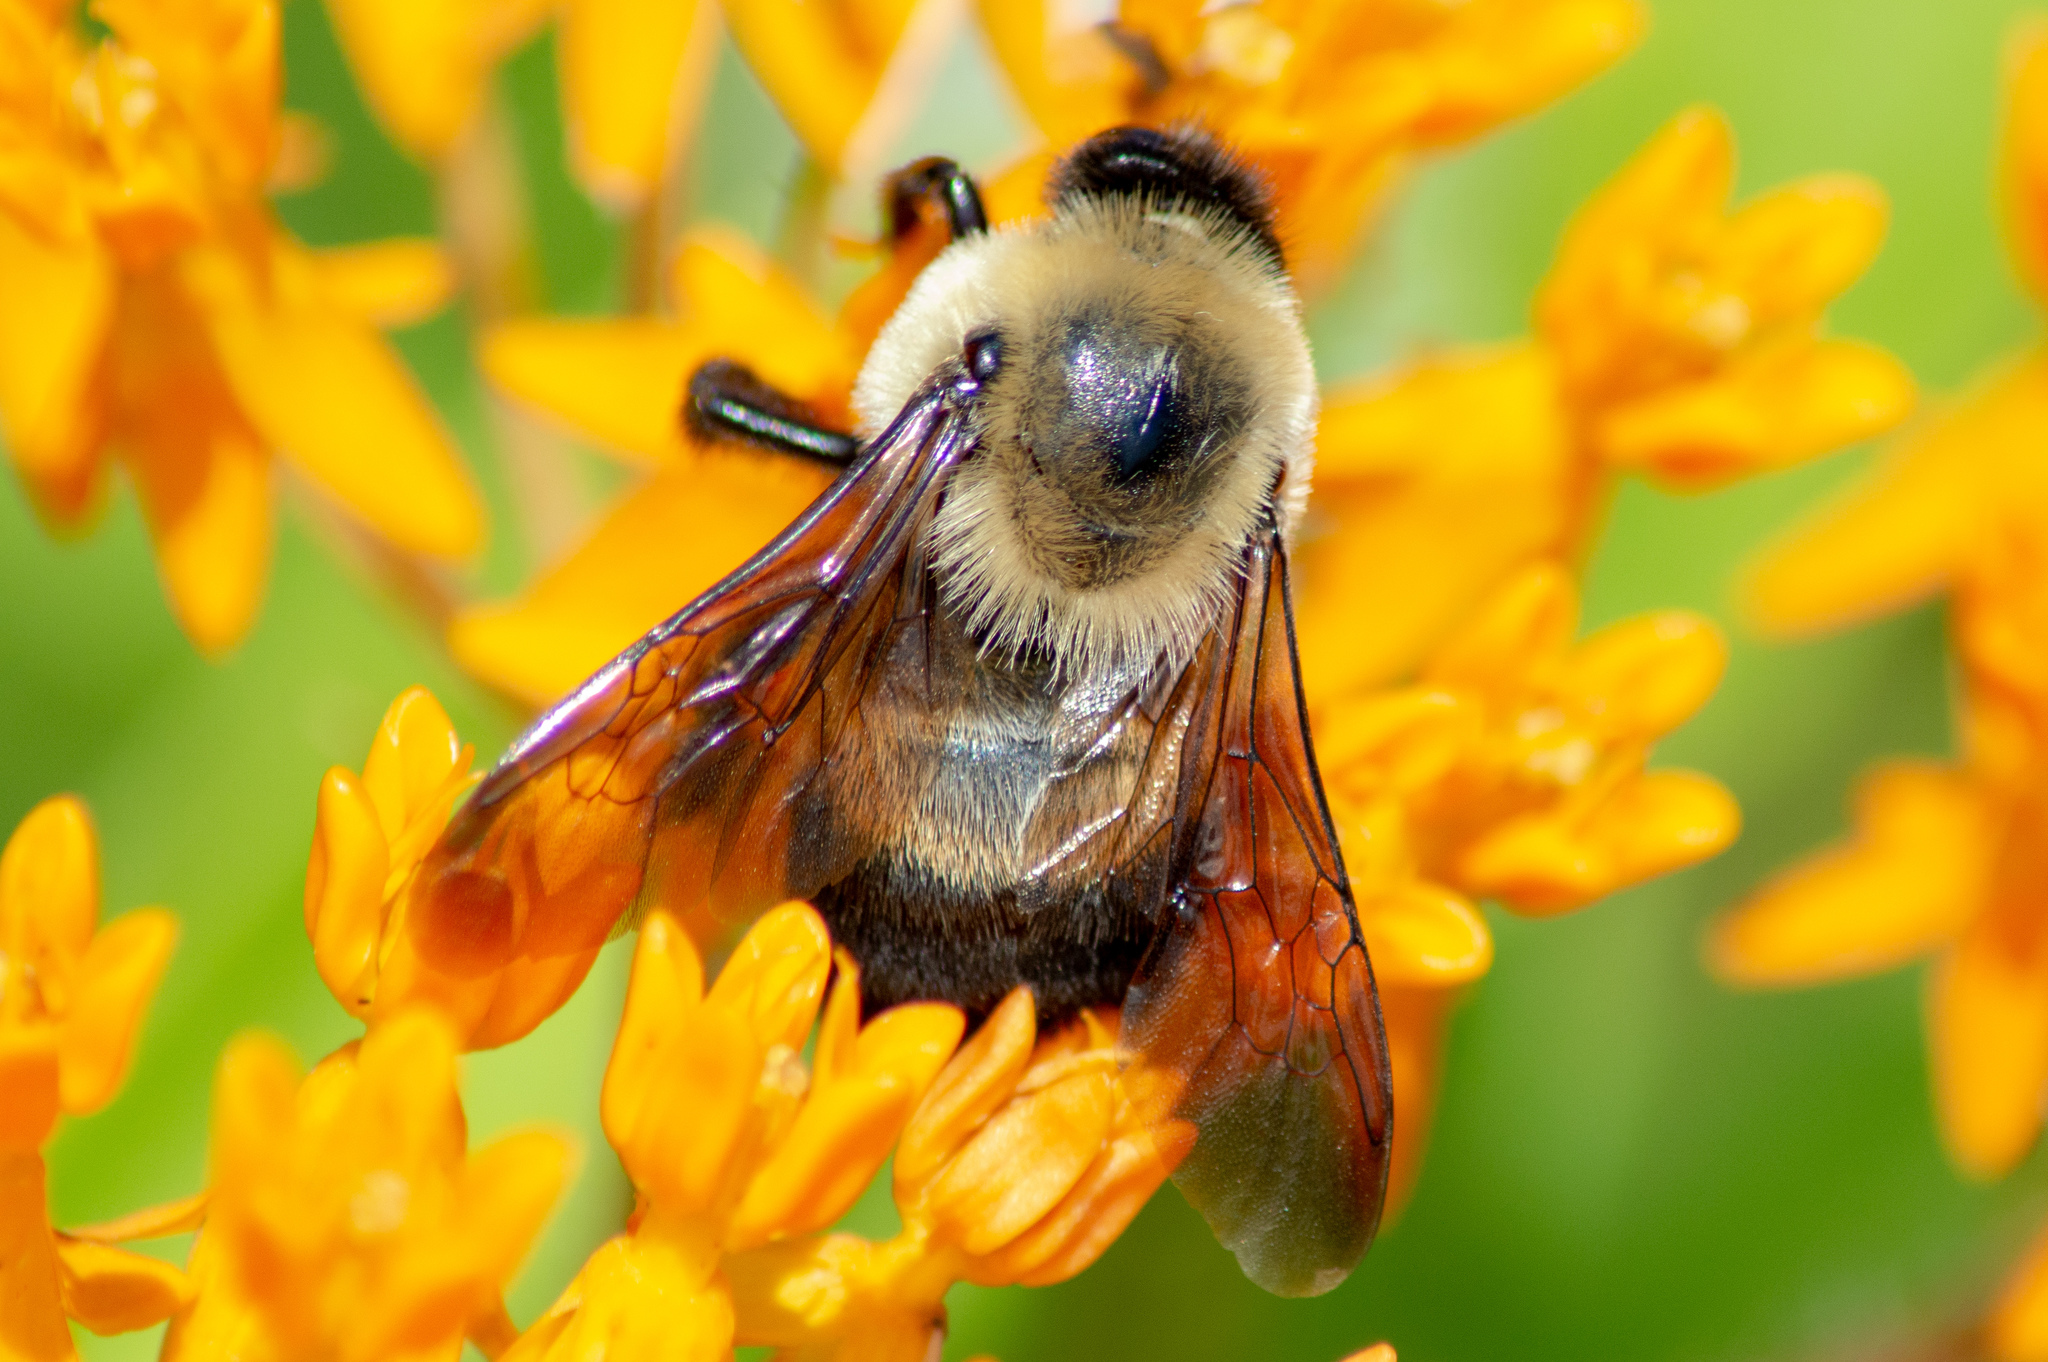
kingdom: Animalia
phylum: Arthropoda
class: Insecta
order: Hymenoptera
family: Apidae
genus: Bombus
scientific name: Bombus griseocollis
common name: Brown-belted bumble bee
